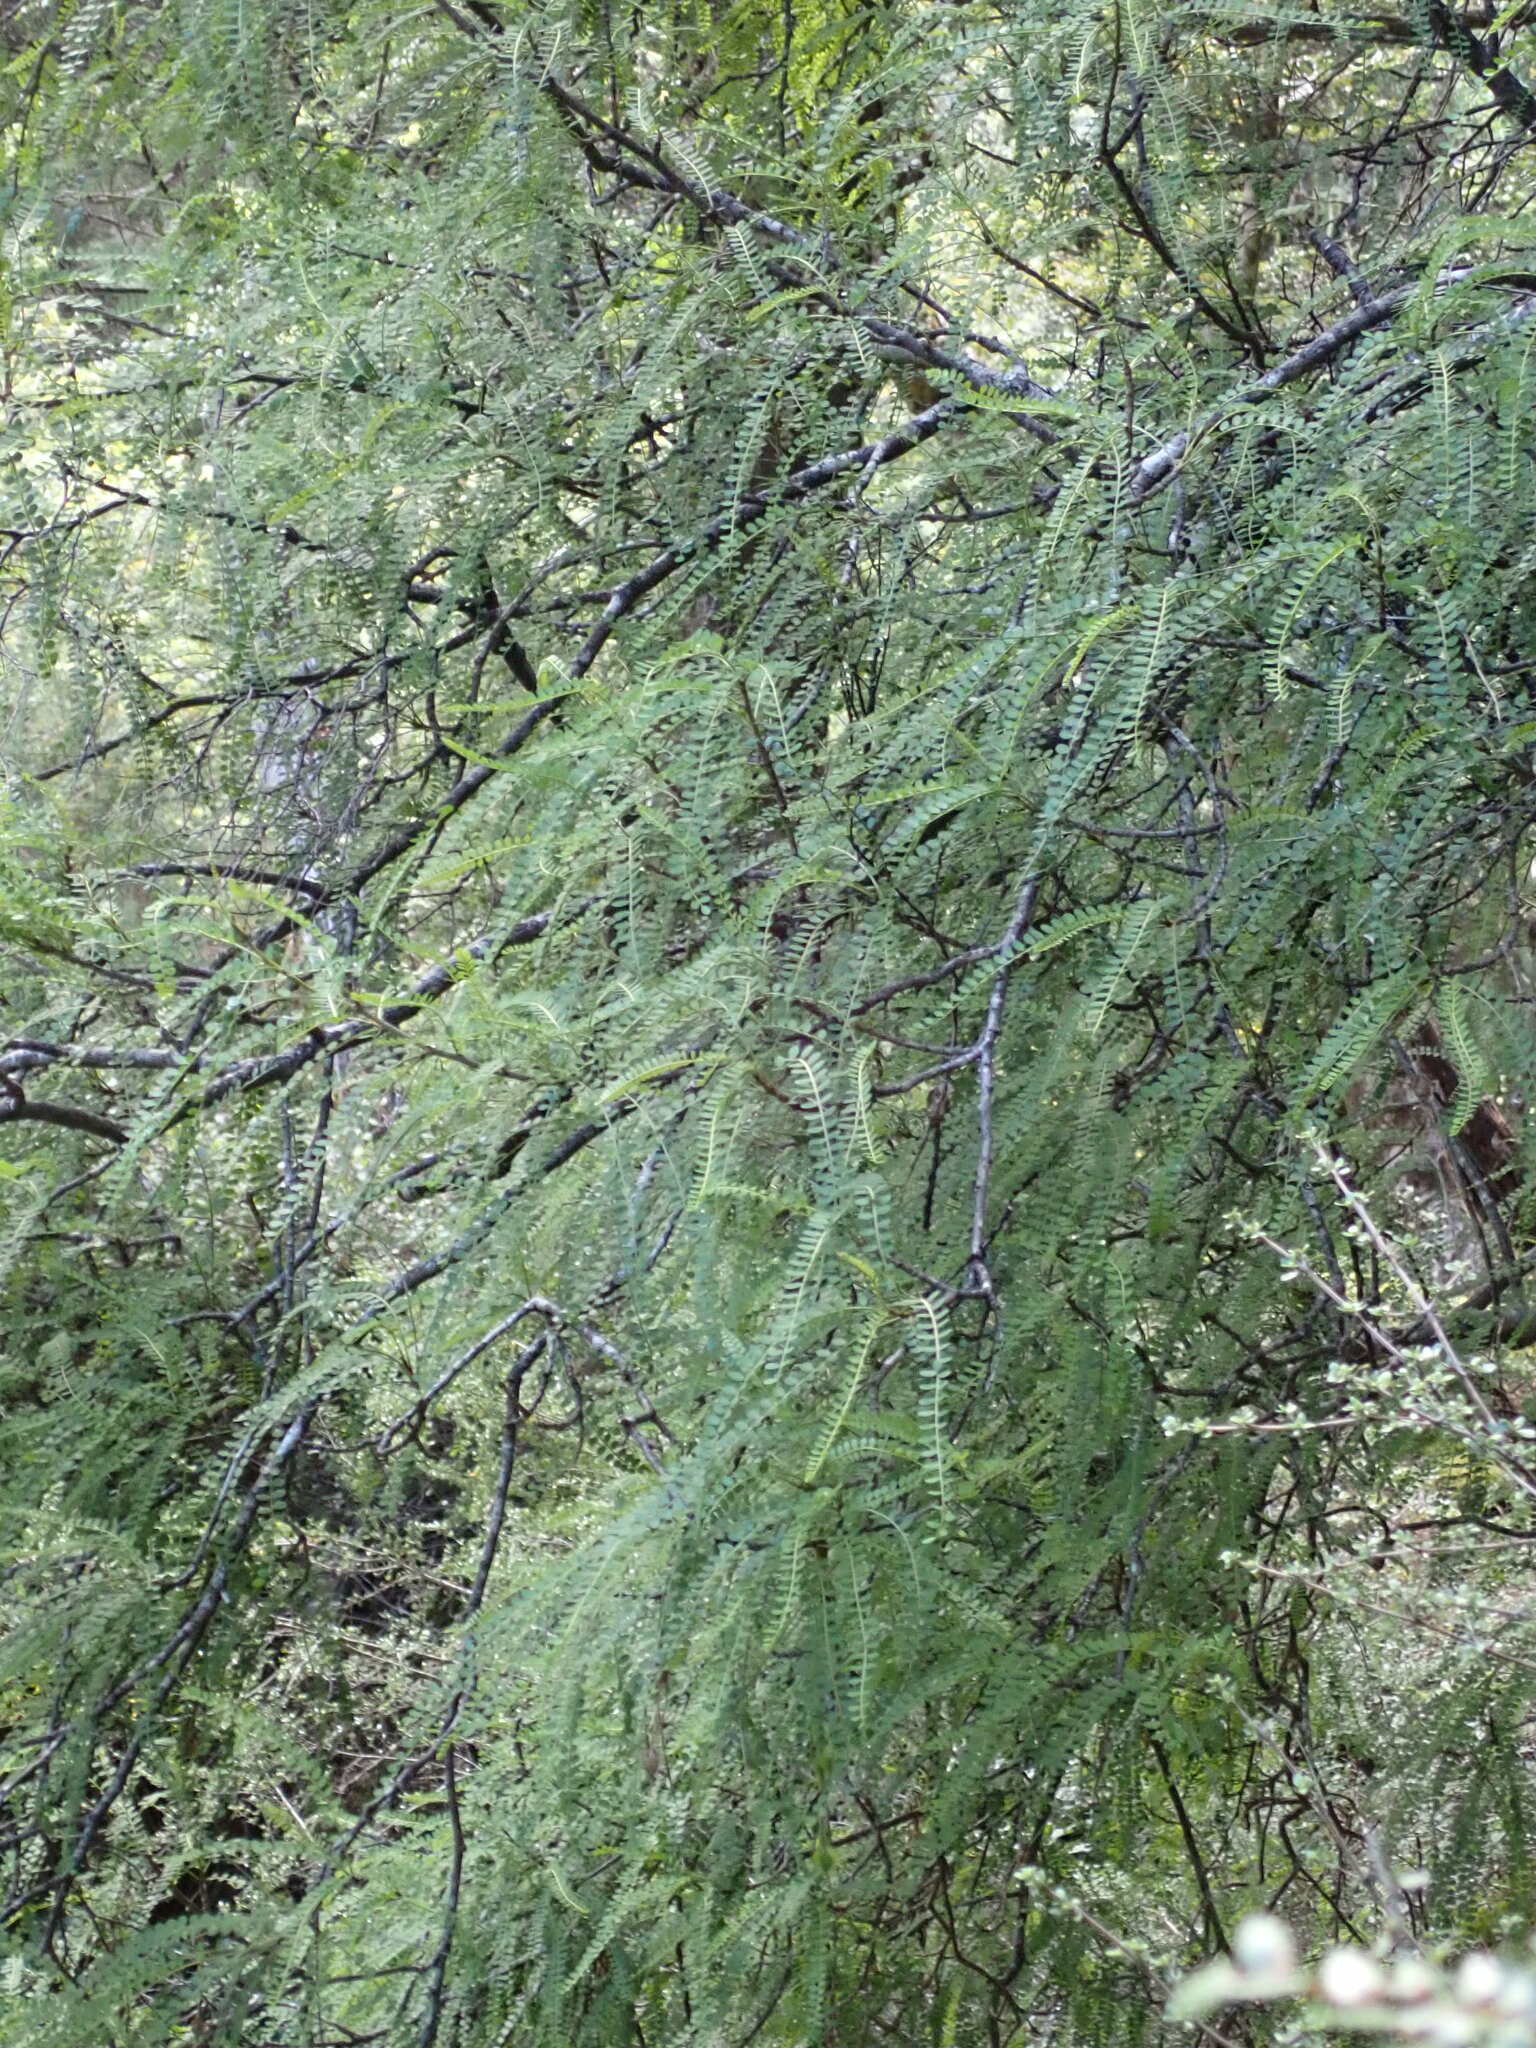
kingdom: Plantae
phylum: Tracheophyta
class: Magnoliopsida
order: Fabales
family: Fabaceae
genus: Sophora
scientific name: Sophora microphylla
